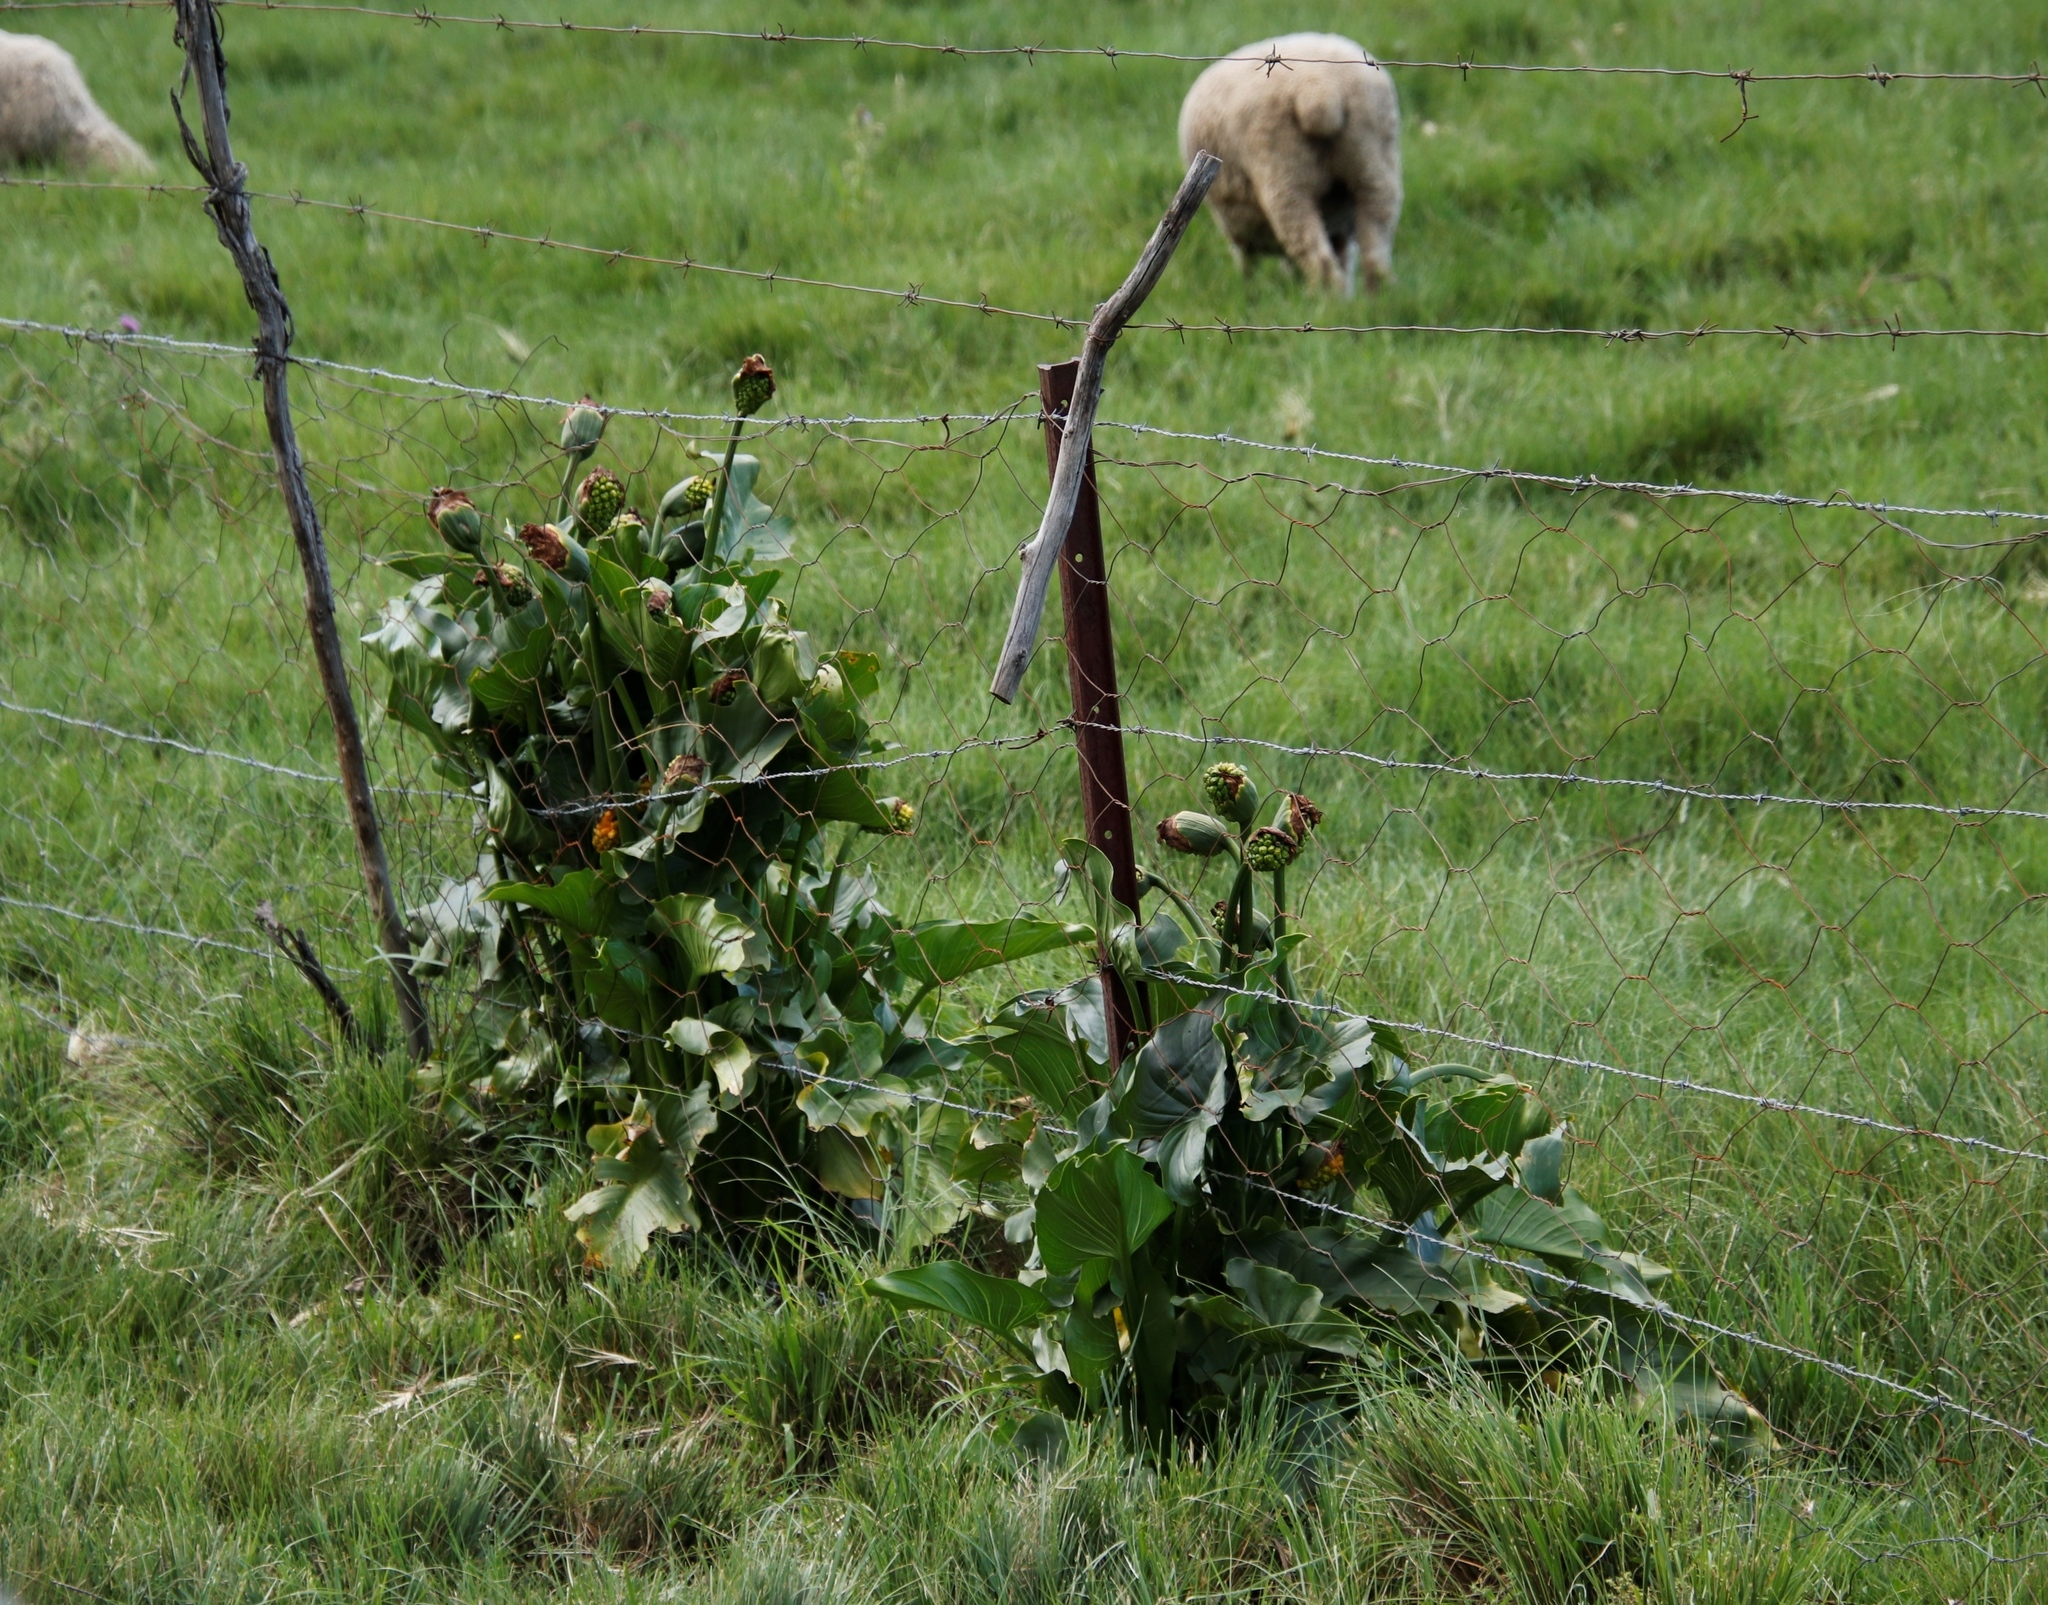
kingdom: Plantae
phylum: Tracheophyta
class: Liliopsida
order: Alismatales
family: Araceae
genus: Zantedeschia
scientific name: Zantedeschia aethiopica
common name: Altar-lily
